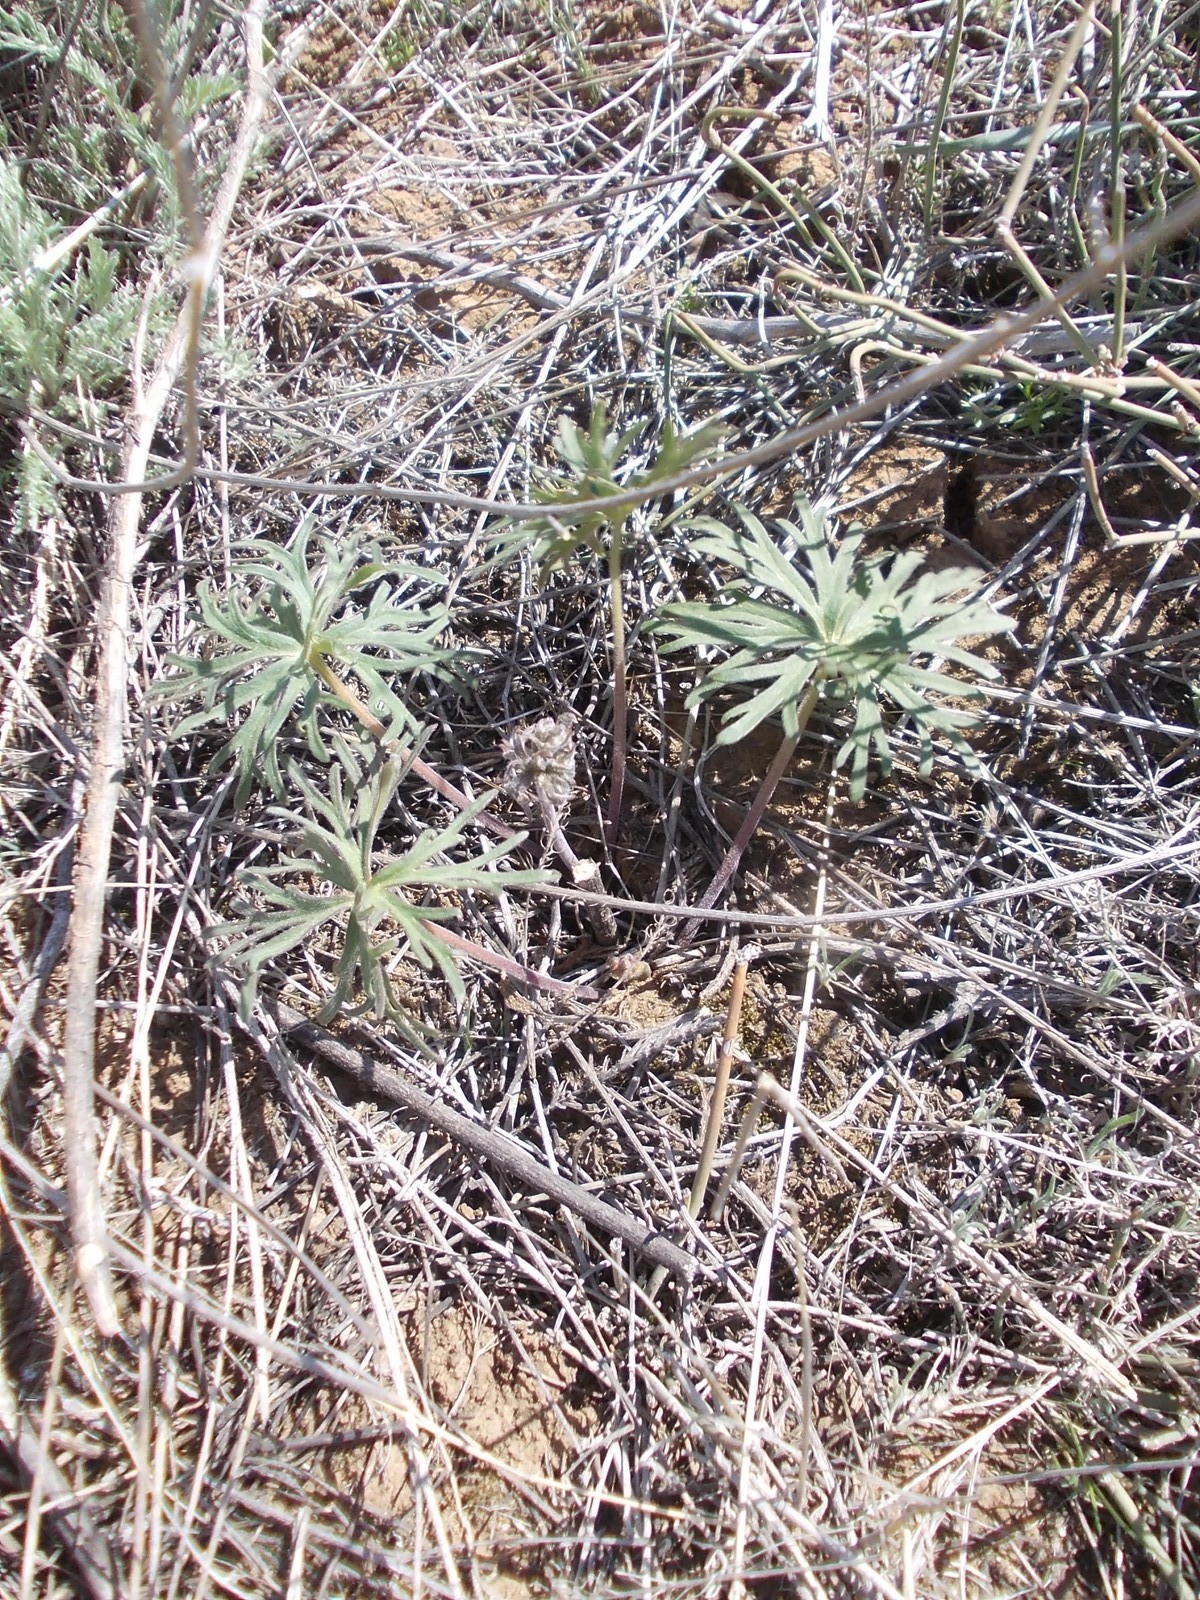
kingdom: Plantae
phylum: Tracheophyta
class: Magnoliopsida
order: Ranunculales
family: Ranunculaceae
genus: Delphinium
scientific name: Delphinium puniceum
